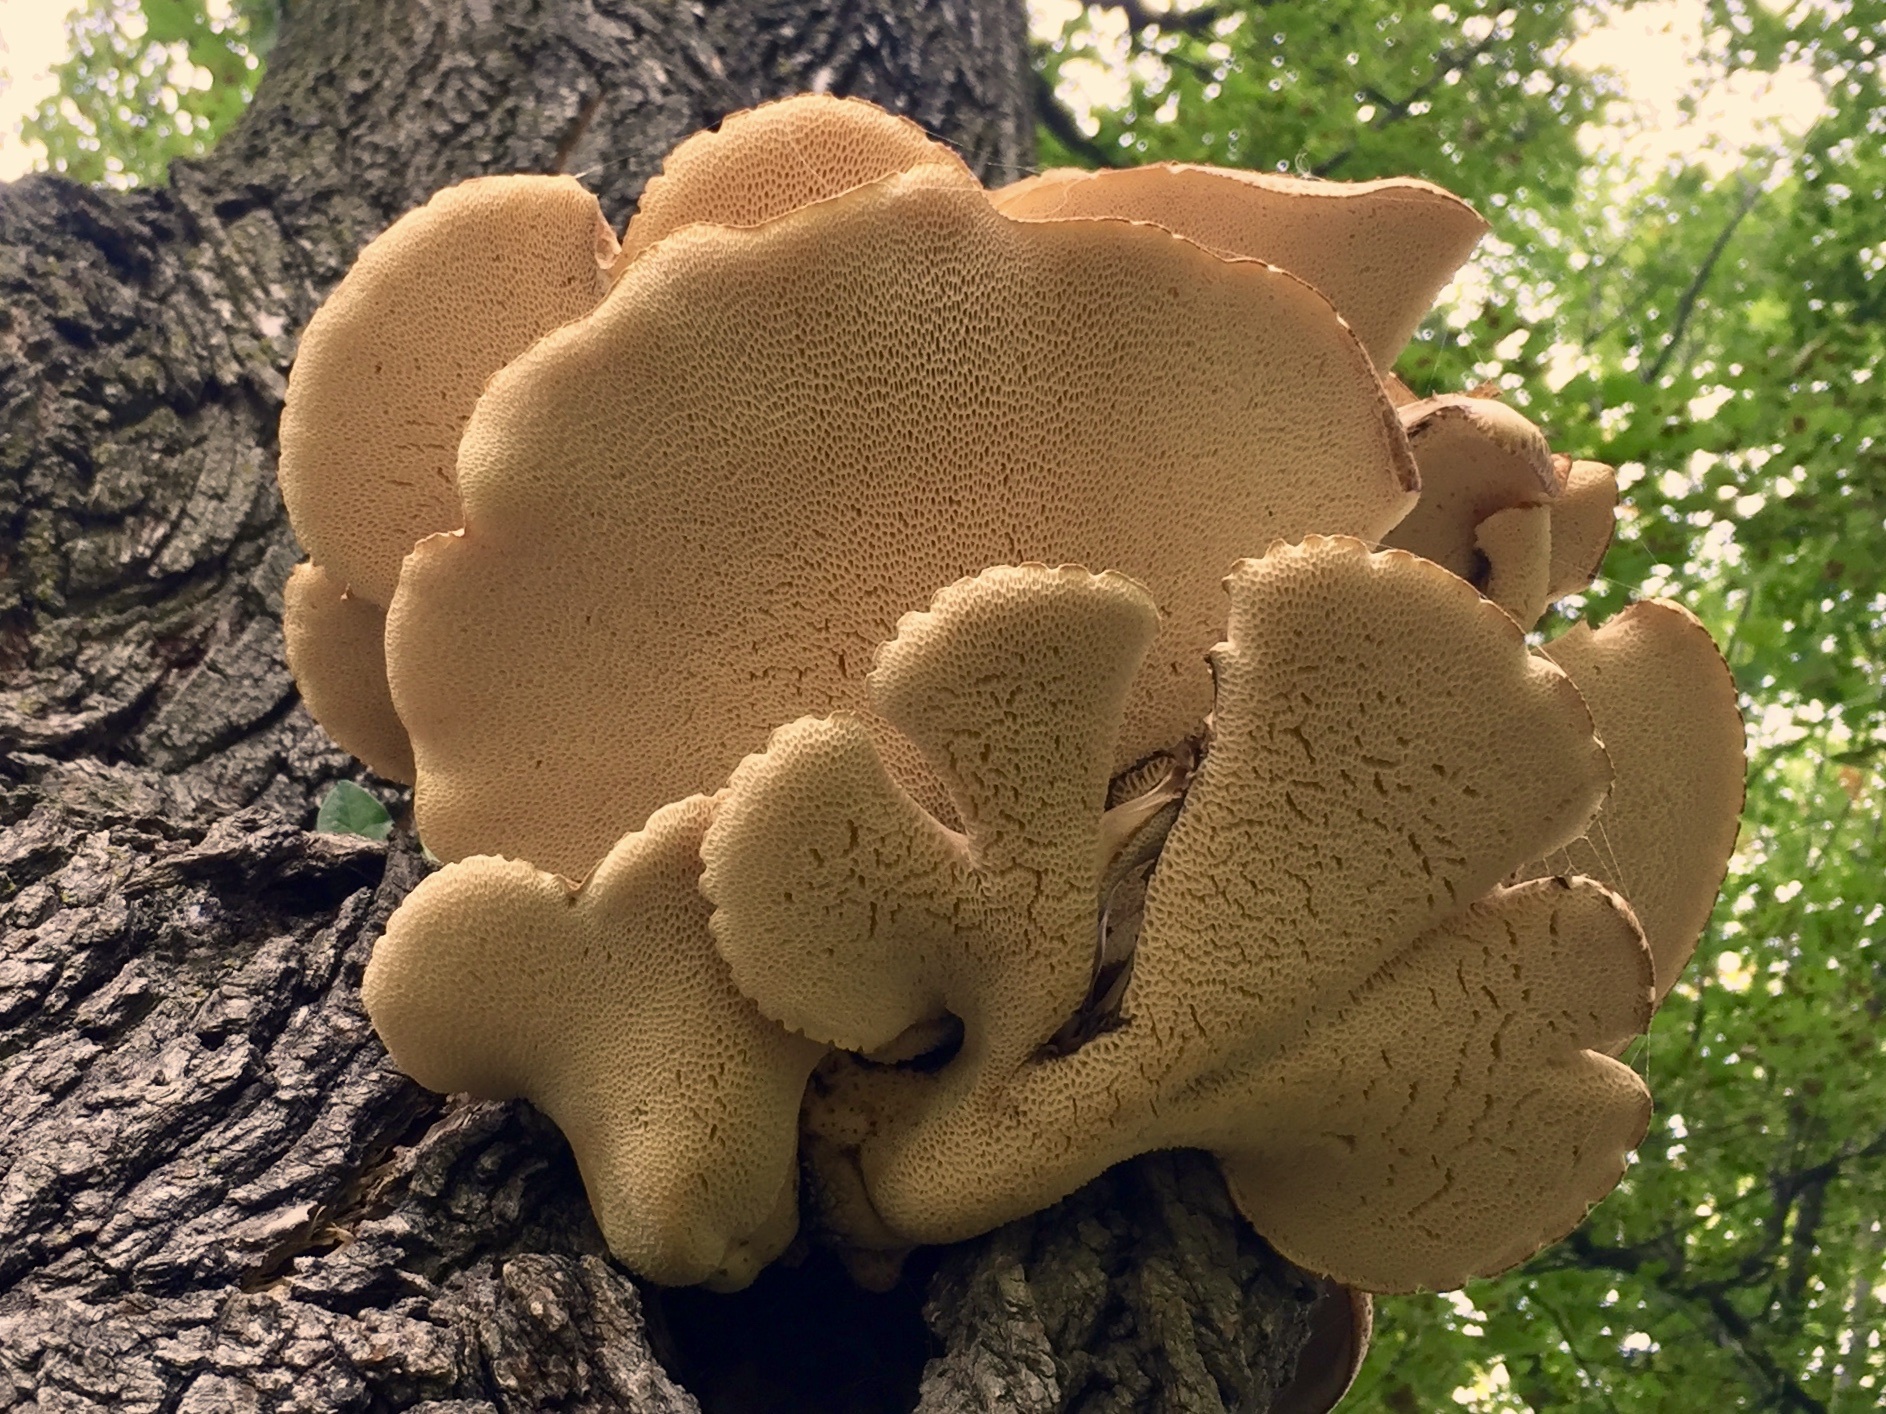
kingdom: Fungi
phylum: Basidiomycota
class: Agaricomycetes
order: Polyporales
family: Polyporaceae
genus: Cerioporus
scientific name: Cerioporus squamosus
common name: Dryad's saddle
